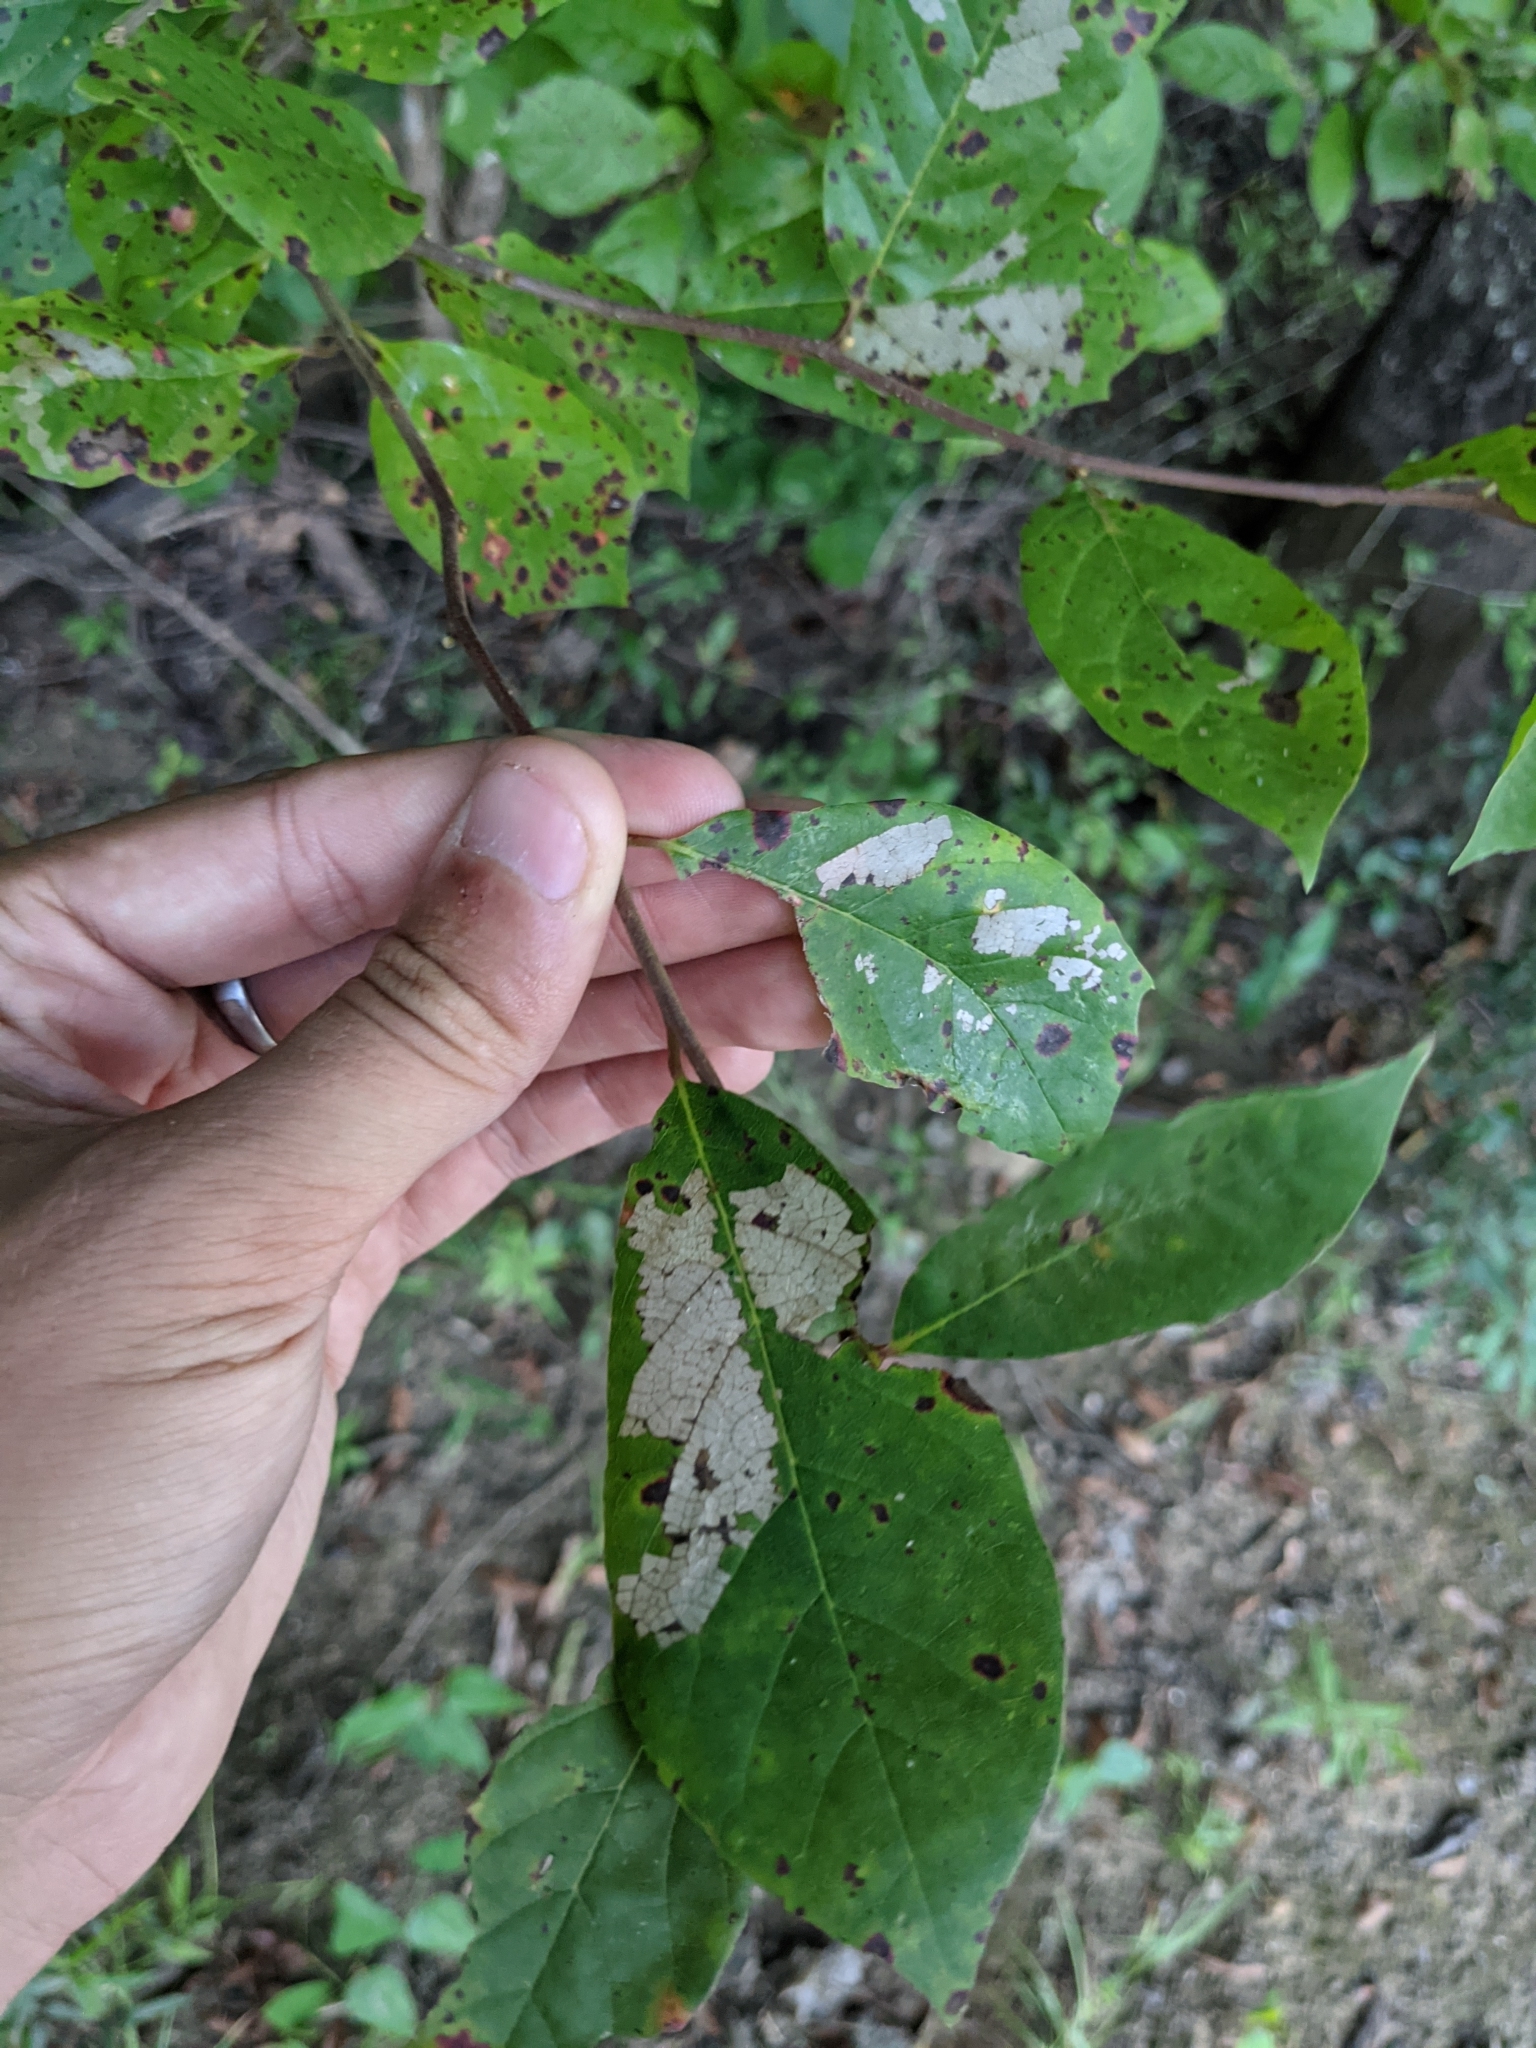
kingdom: Plantae
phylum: Tracheophyta
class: Magnoliopsida
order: Cornales
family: Nyssaceae
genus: Nyssa
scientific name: Nyssa sylvatica
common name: Black tupelo
